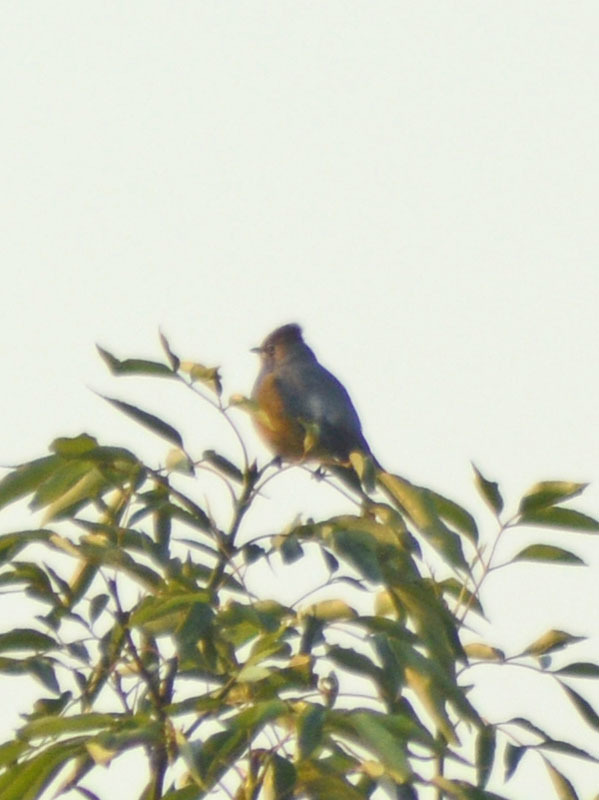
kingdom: Animalia
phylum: Chordata
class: Aves
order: Passeriformes
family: Ptilogonatidae
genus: Ptilogonys
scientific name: Ptilogonys cinereus
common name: Gray silky-flycatcher
